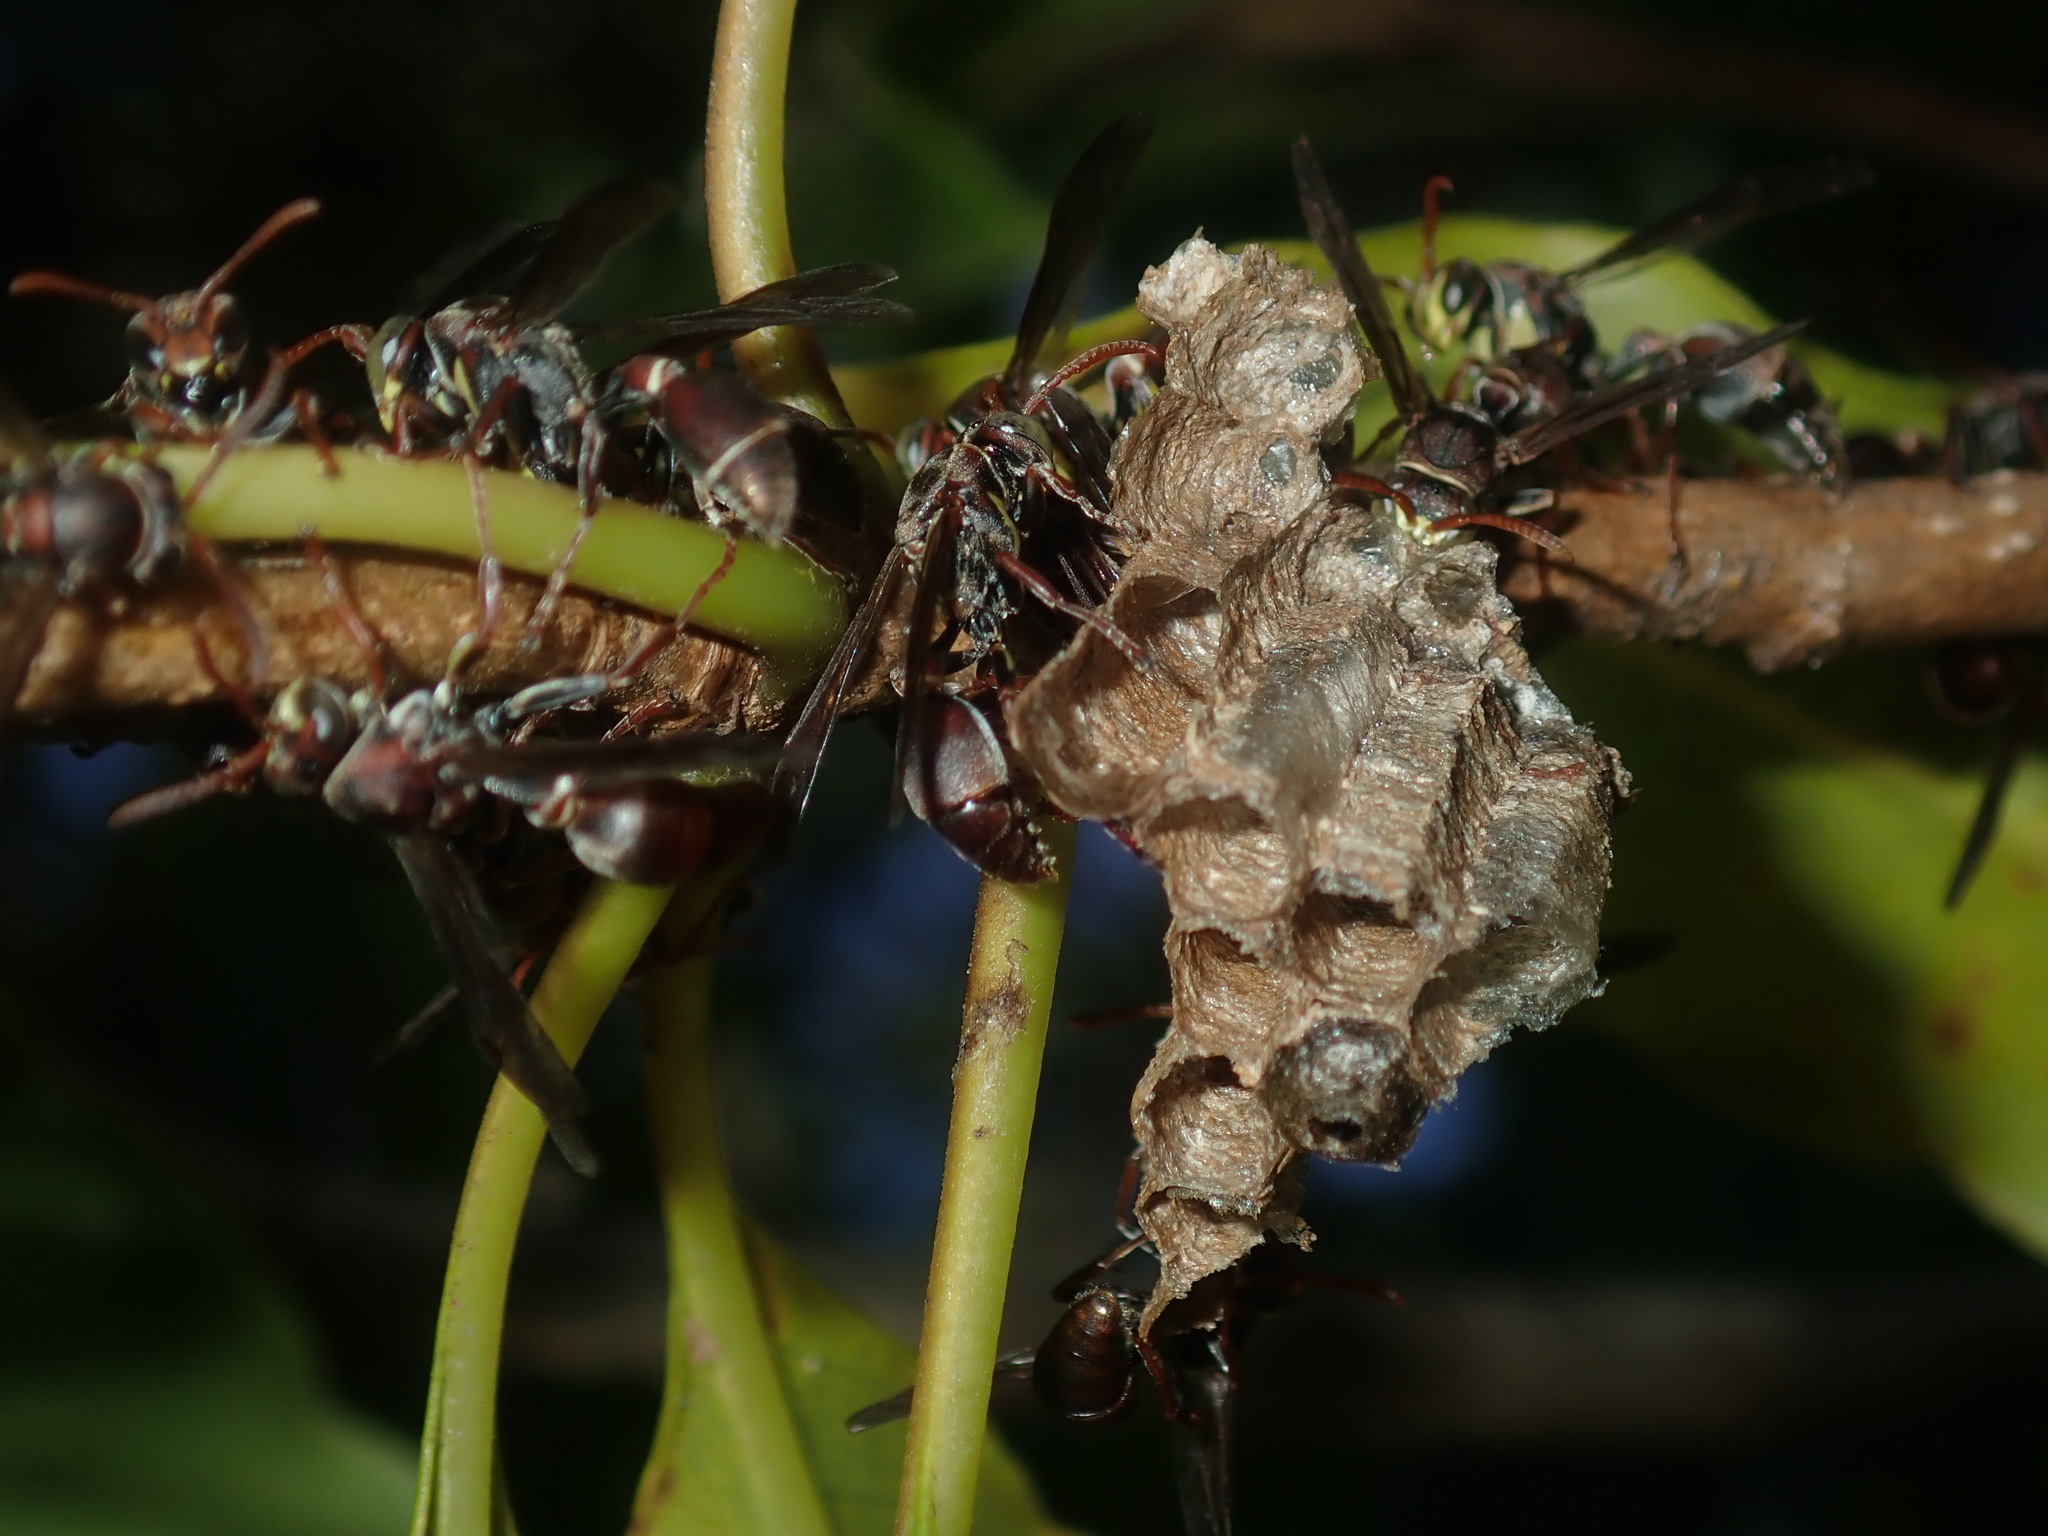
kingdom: Animalia
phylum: Arthropoda
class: Insecta
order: Hymenoptera
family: Vespidae
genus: Ropalidia
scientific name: Ropalidia plebeiana
